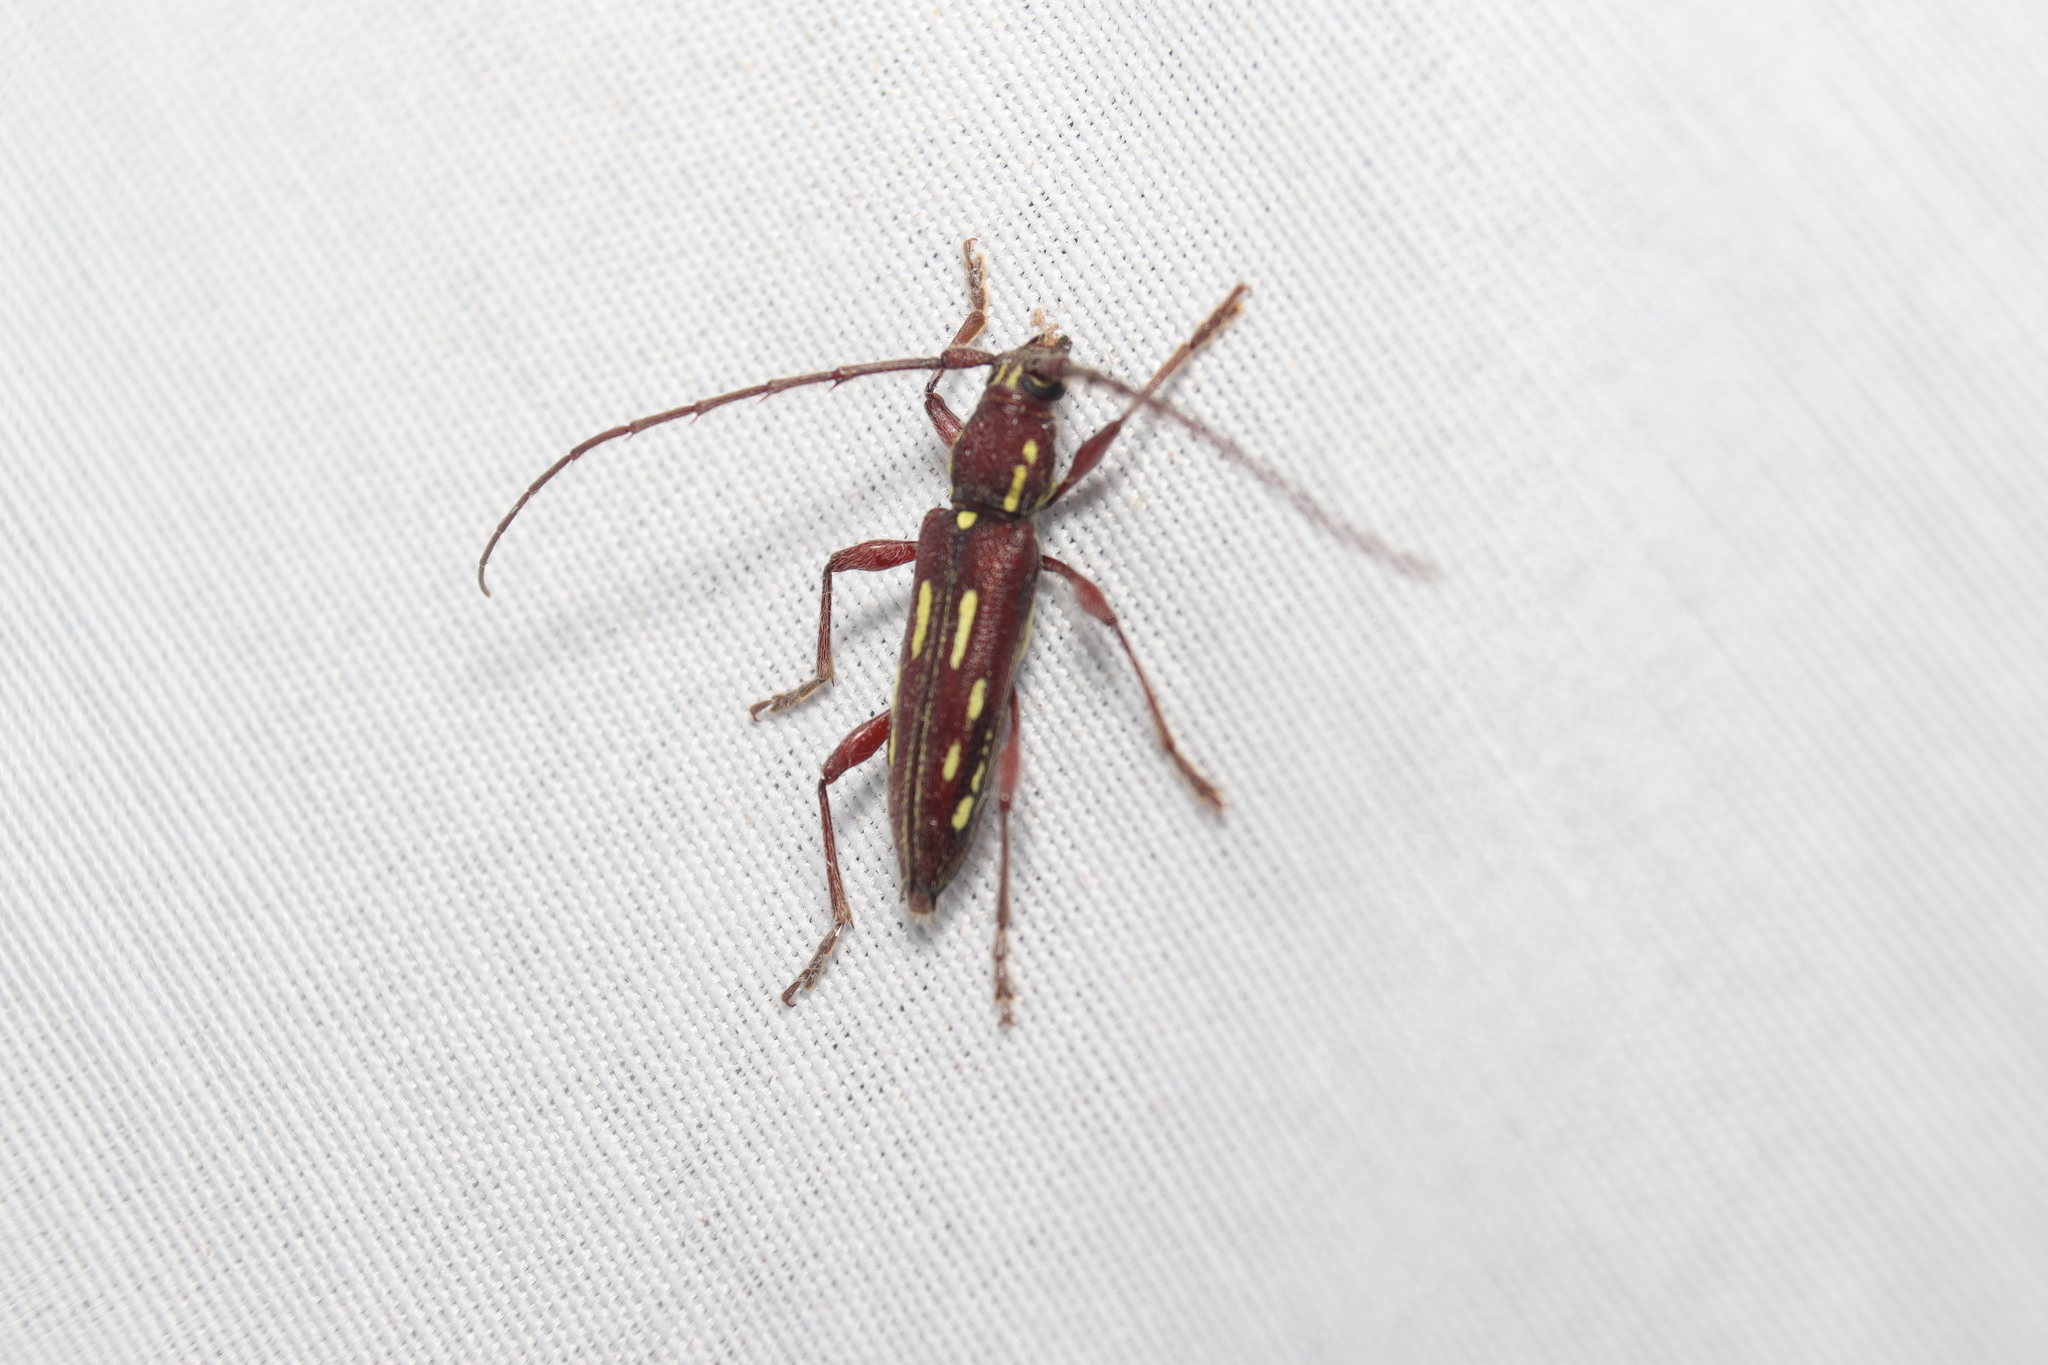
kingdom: Animalia
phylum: Arthropoda
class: Insecta
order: Coleoptera
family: Cerambycidae
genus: Ambonus
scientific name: Ambonus distinctus
